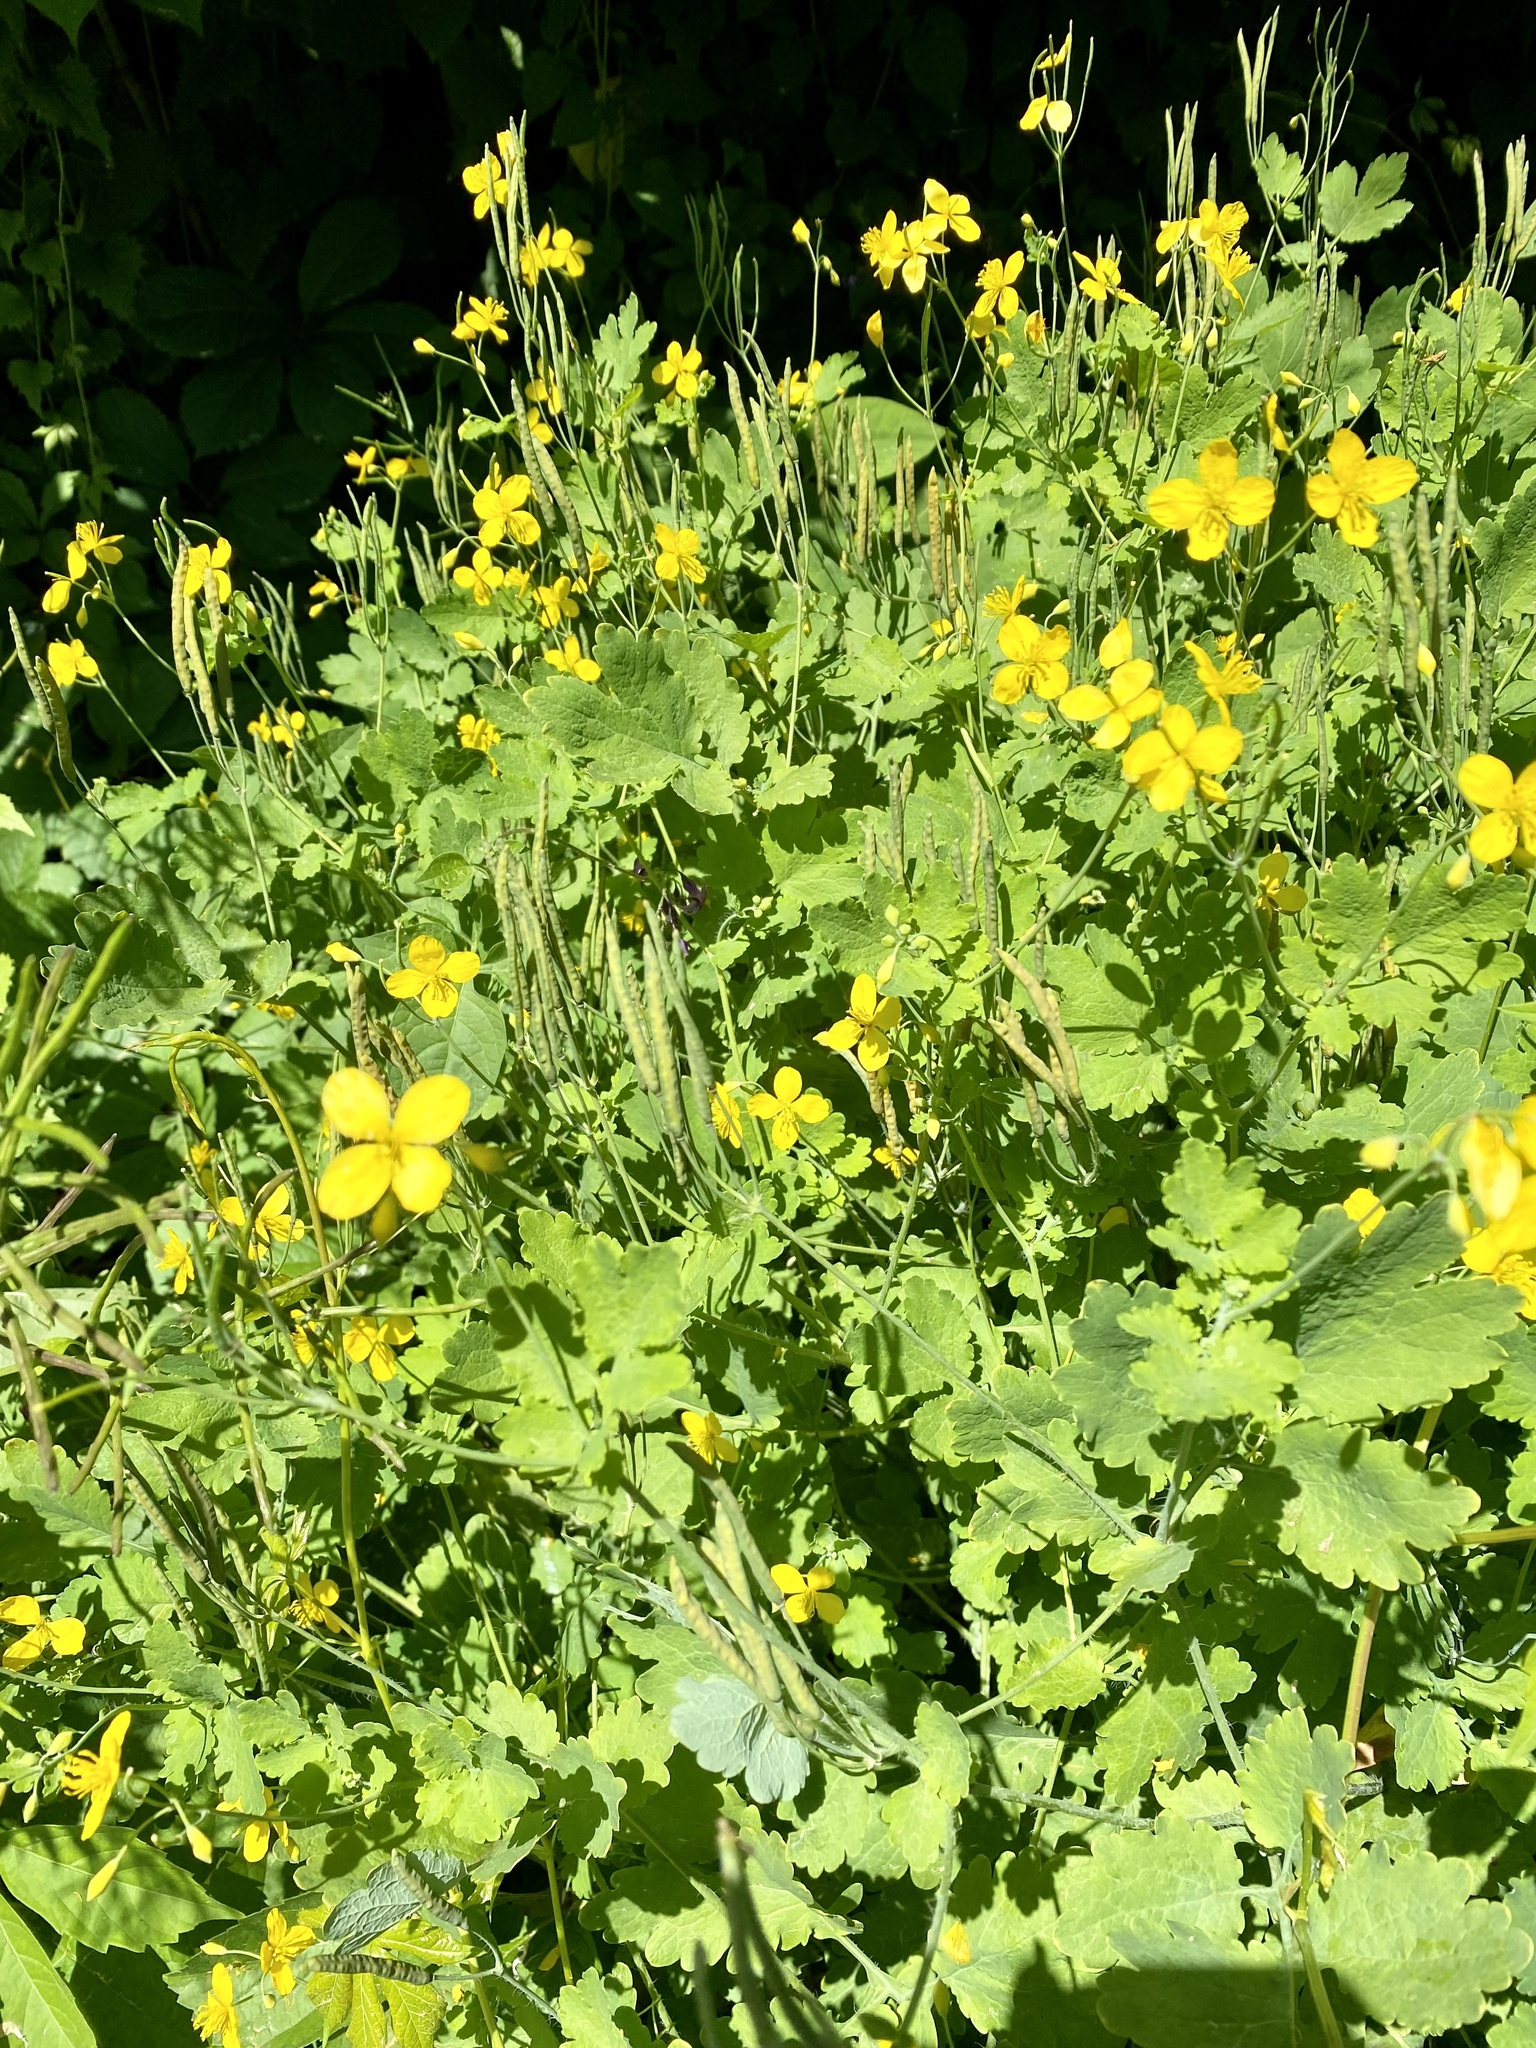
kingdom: Plantae
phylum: Tracheophyta
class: Magnoliopsida
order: Ranunculales
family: Papaveraceae
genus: Chelidonium
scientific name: Chelidonium majus
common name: Greater celandine
